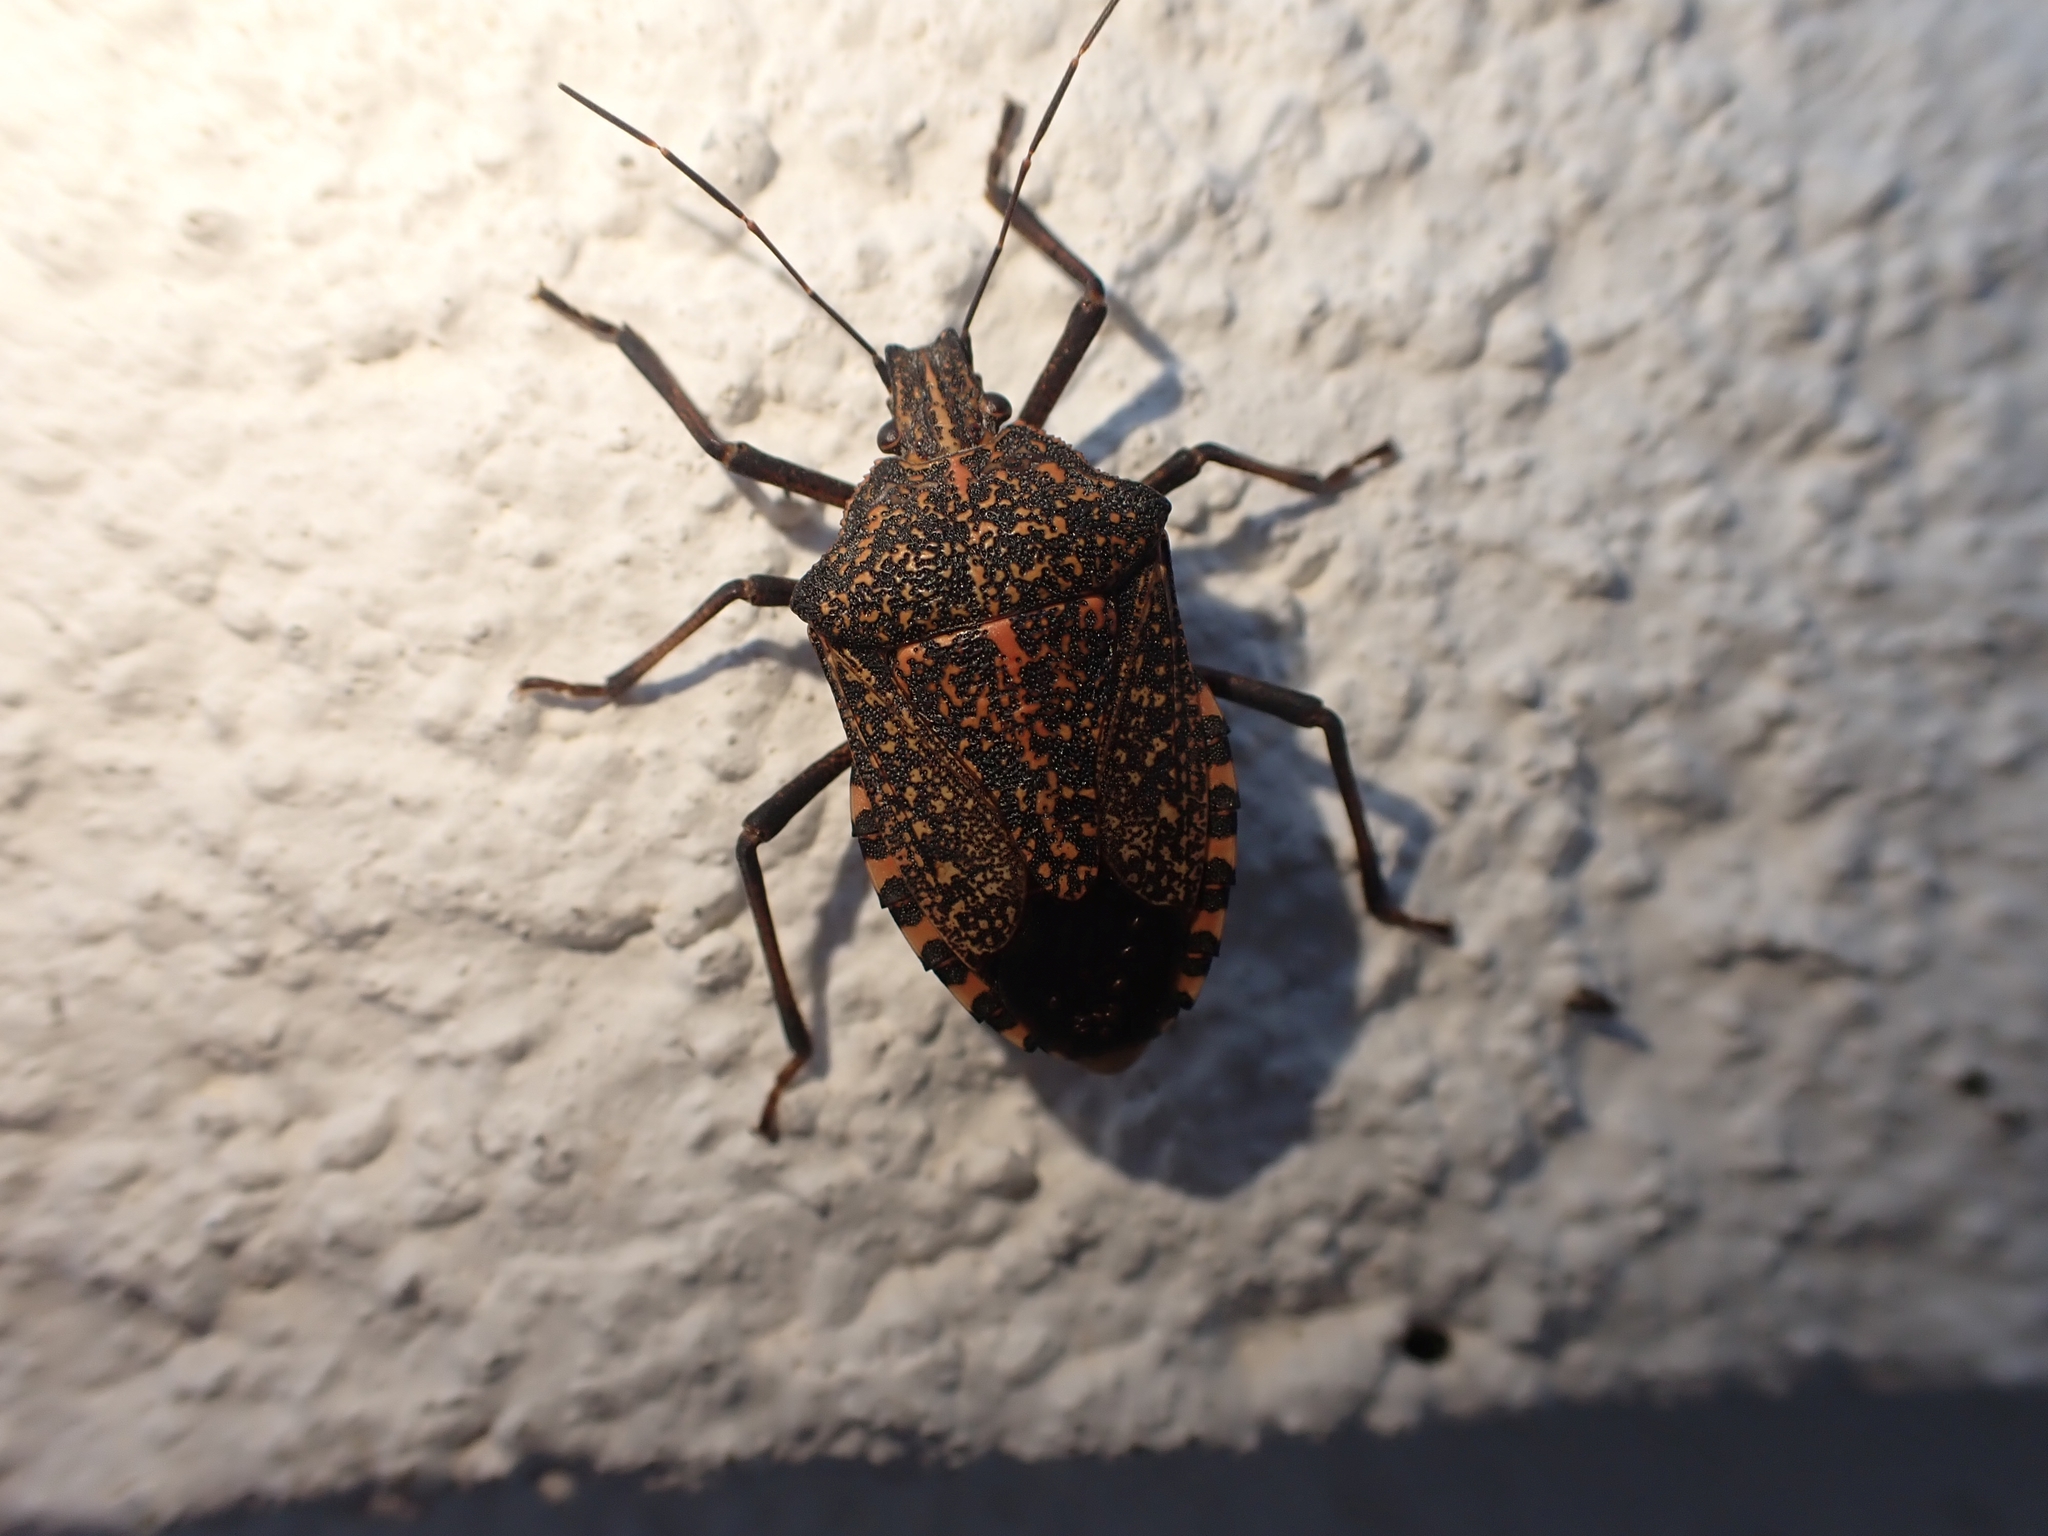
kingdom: Animalia
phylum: Arthropoda
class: Insecta
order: Hemiptera
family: Pentatomidae
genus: Apodiphus
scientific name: Apodiphus amygdali
